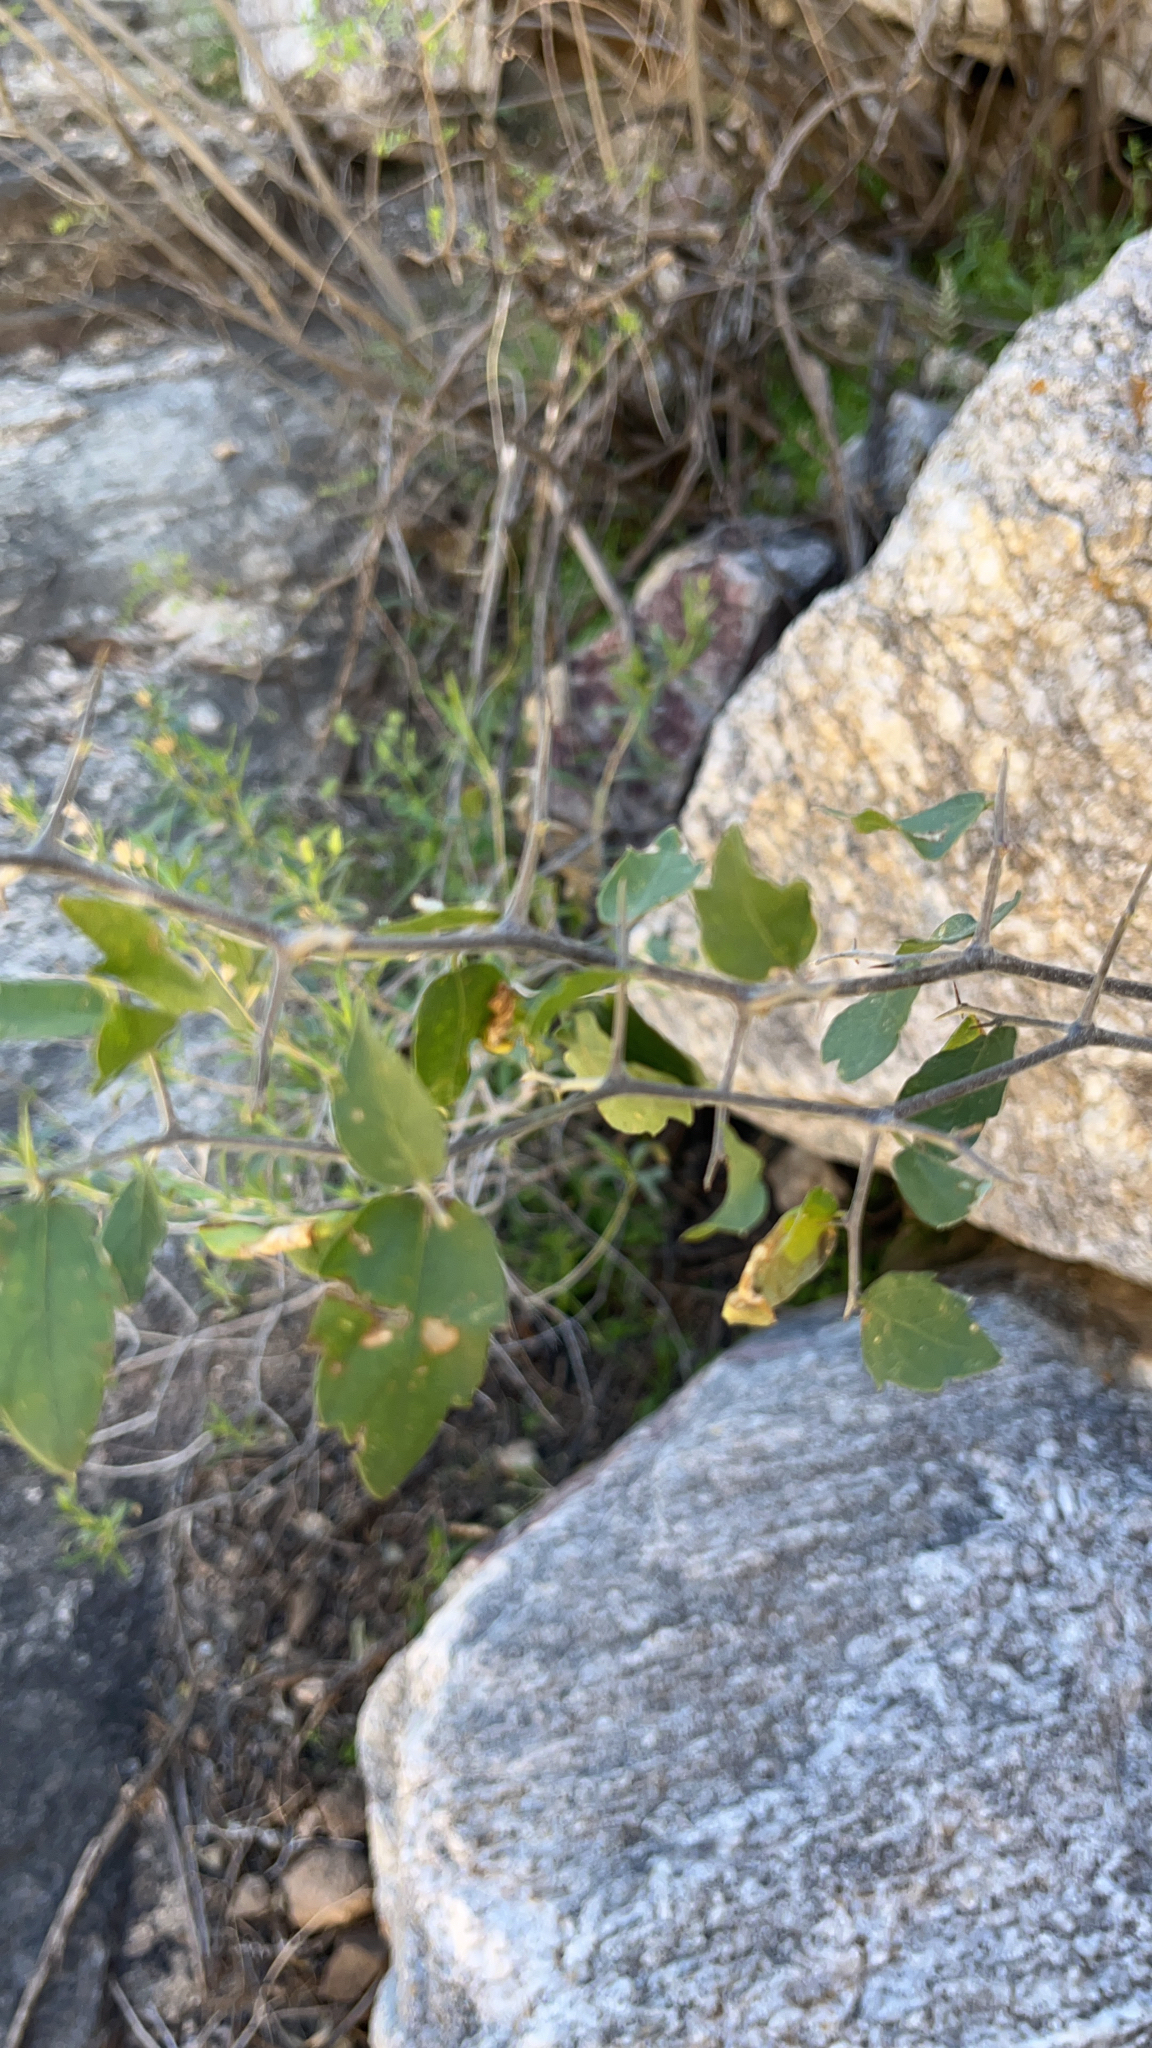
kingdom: Plantae
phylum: Tracheophyta
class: Magnoliopsida
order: Rosales
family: Cannabaceae
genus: Celtis
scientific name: Celtis pallida
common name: Desert hackberry
